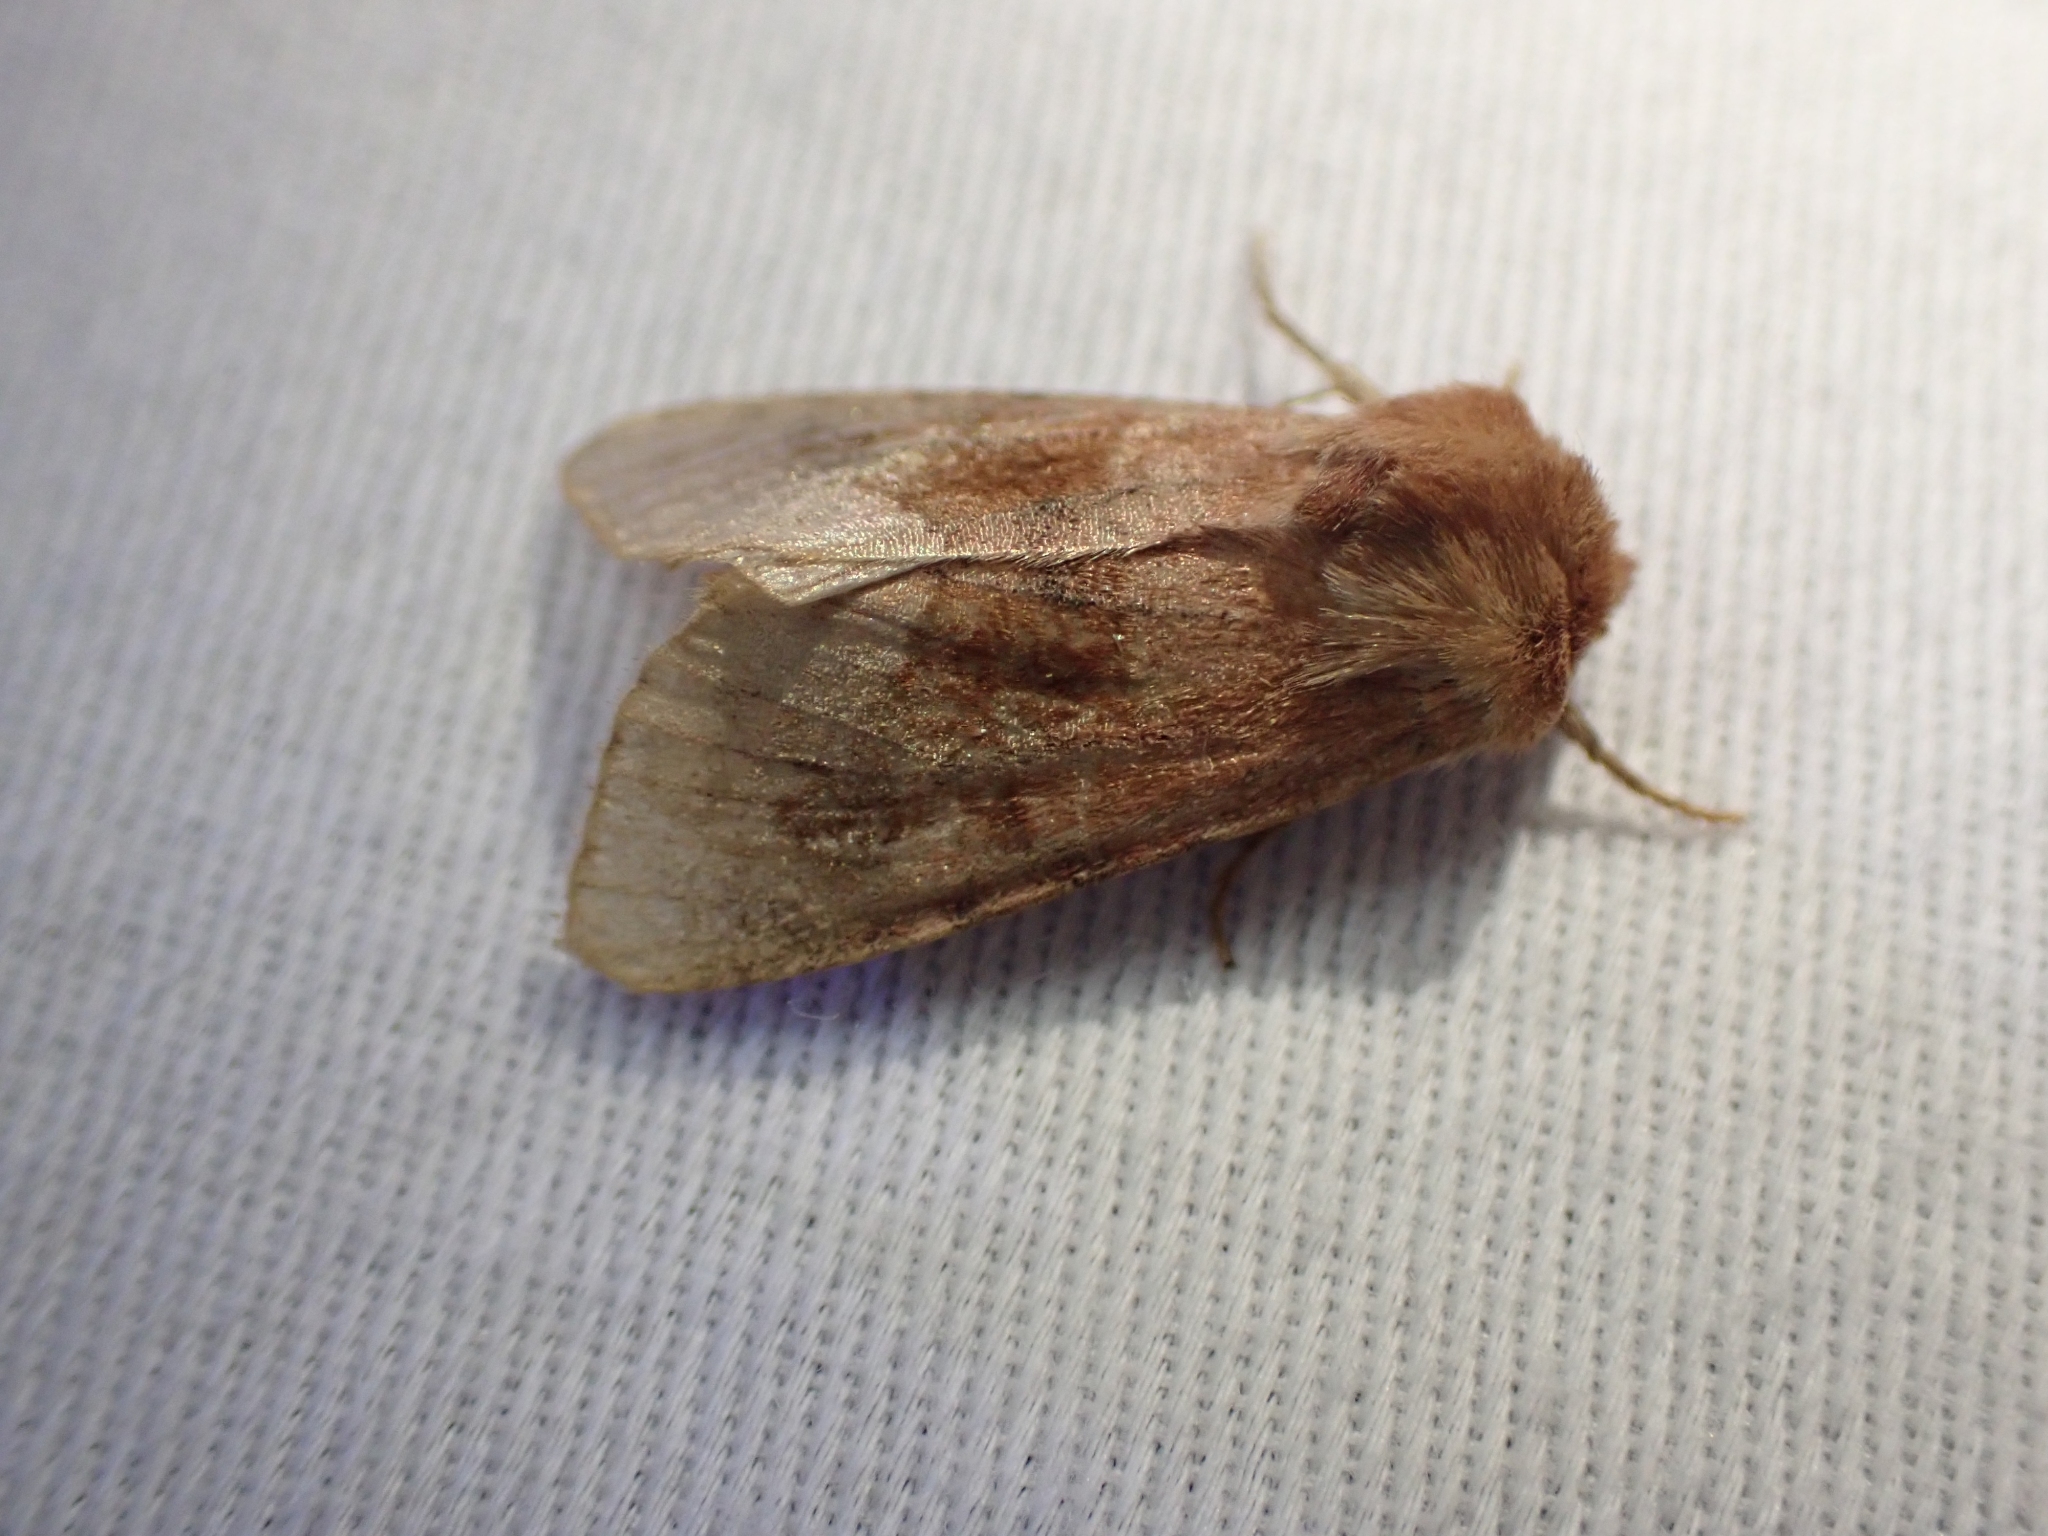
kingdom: Animalia
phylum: Arthropoda
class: Insecta
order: Lepidoptera
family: Noctuidae
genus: Nephelodes
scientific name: Nephelodes minians
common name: Bronzed cutworm
